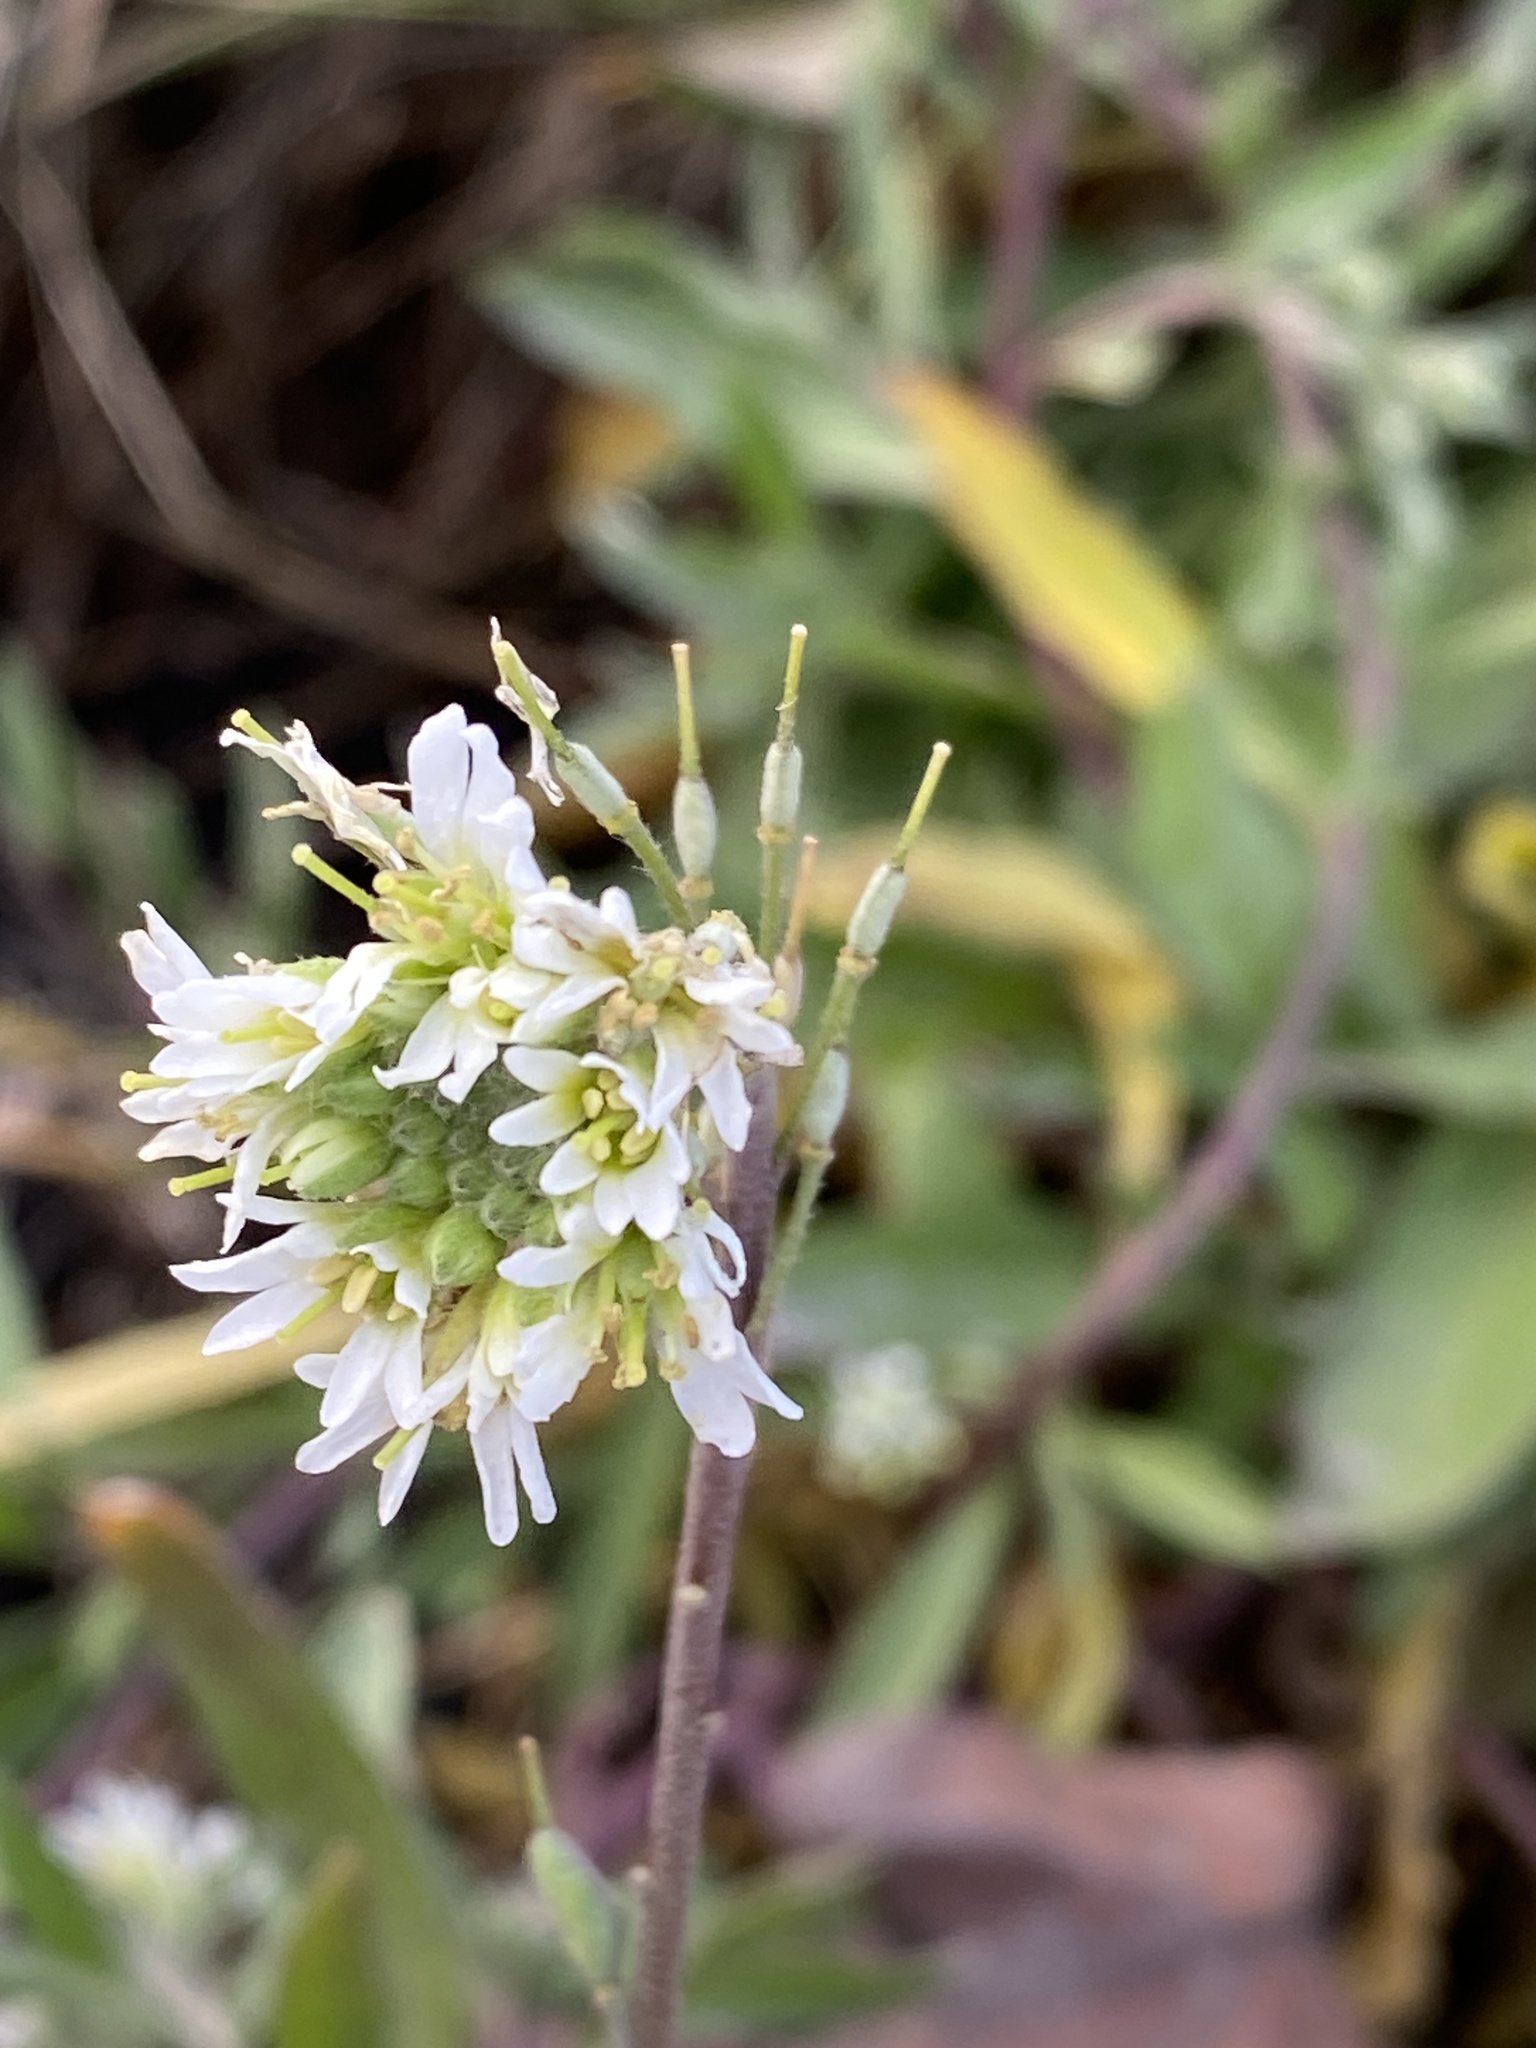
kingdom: Plantae
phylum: Tracheophyta
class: Magnoliopsida
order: Brassicales
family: Brassicaceae
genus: Berteroa
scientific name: Berteroa incana
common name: Hoary alison
